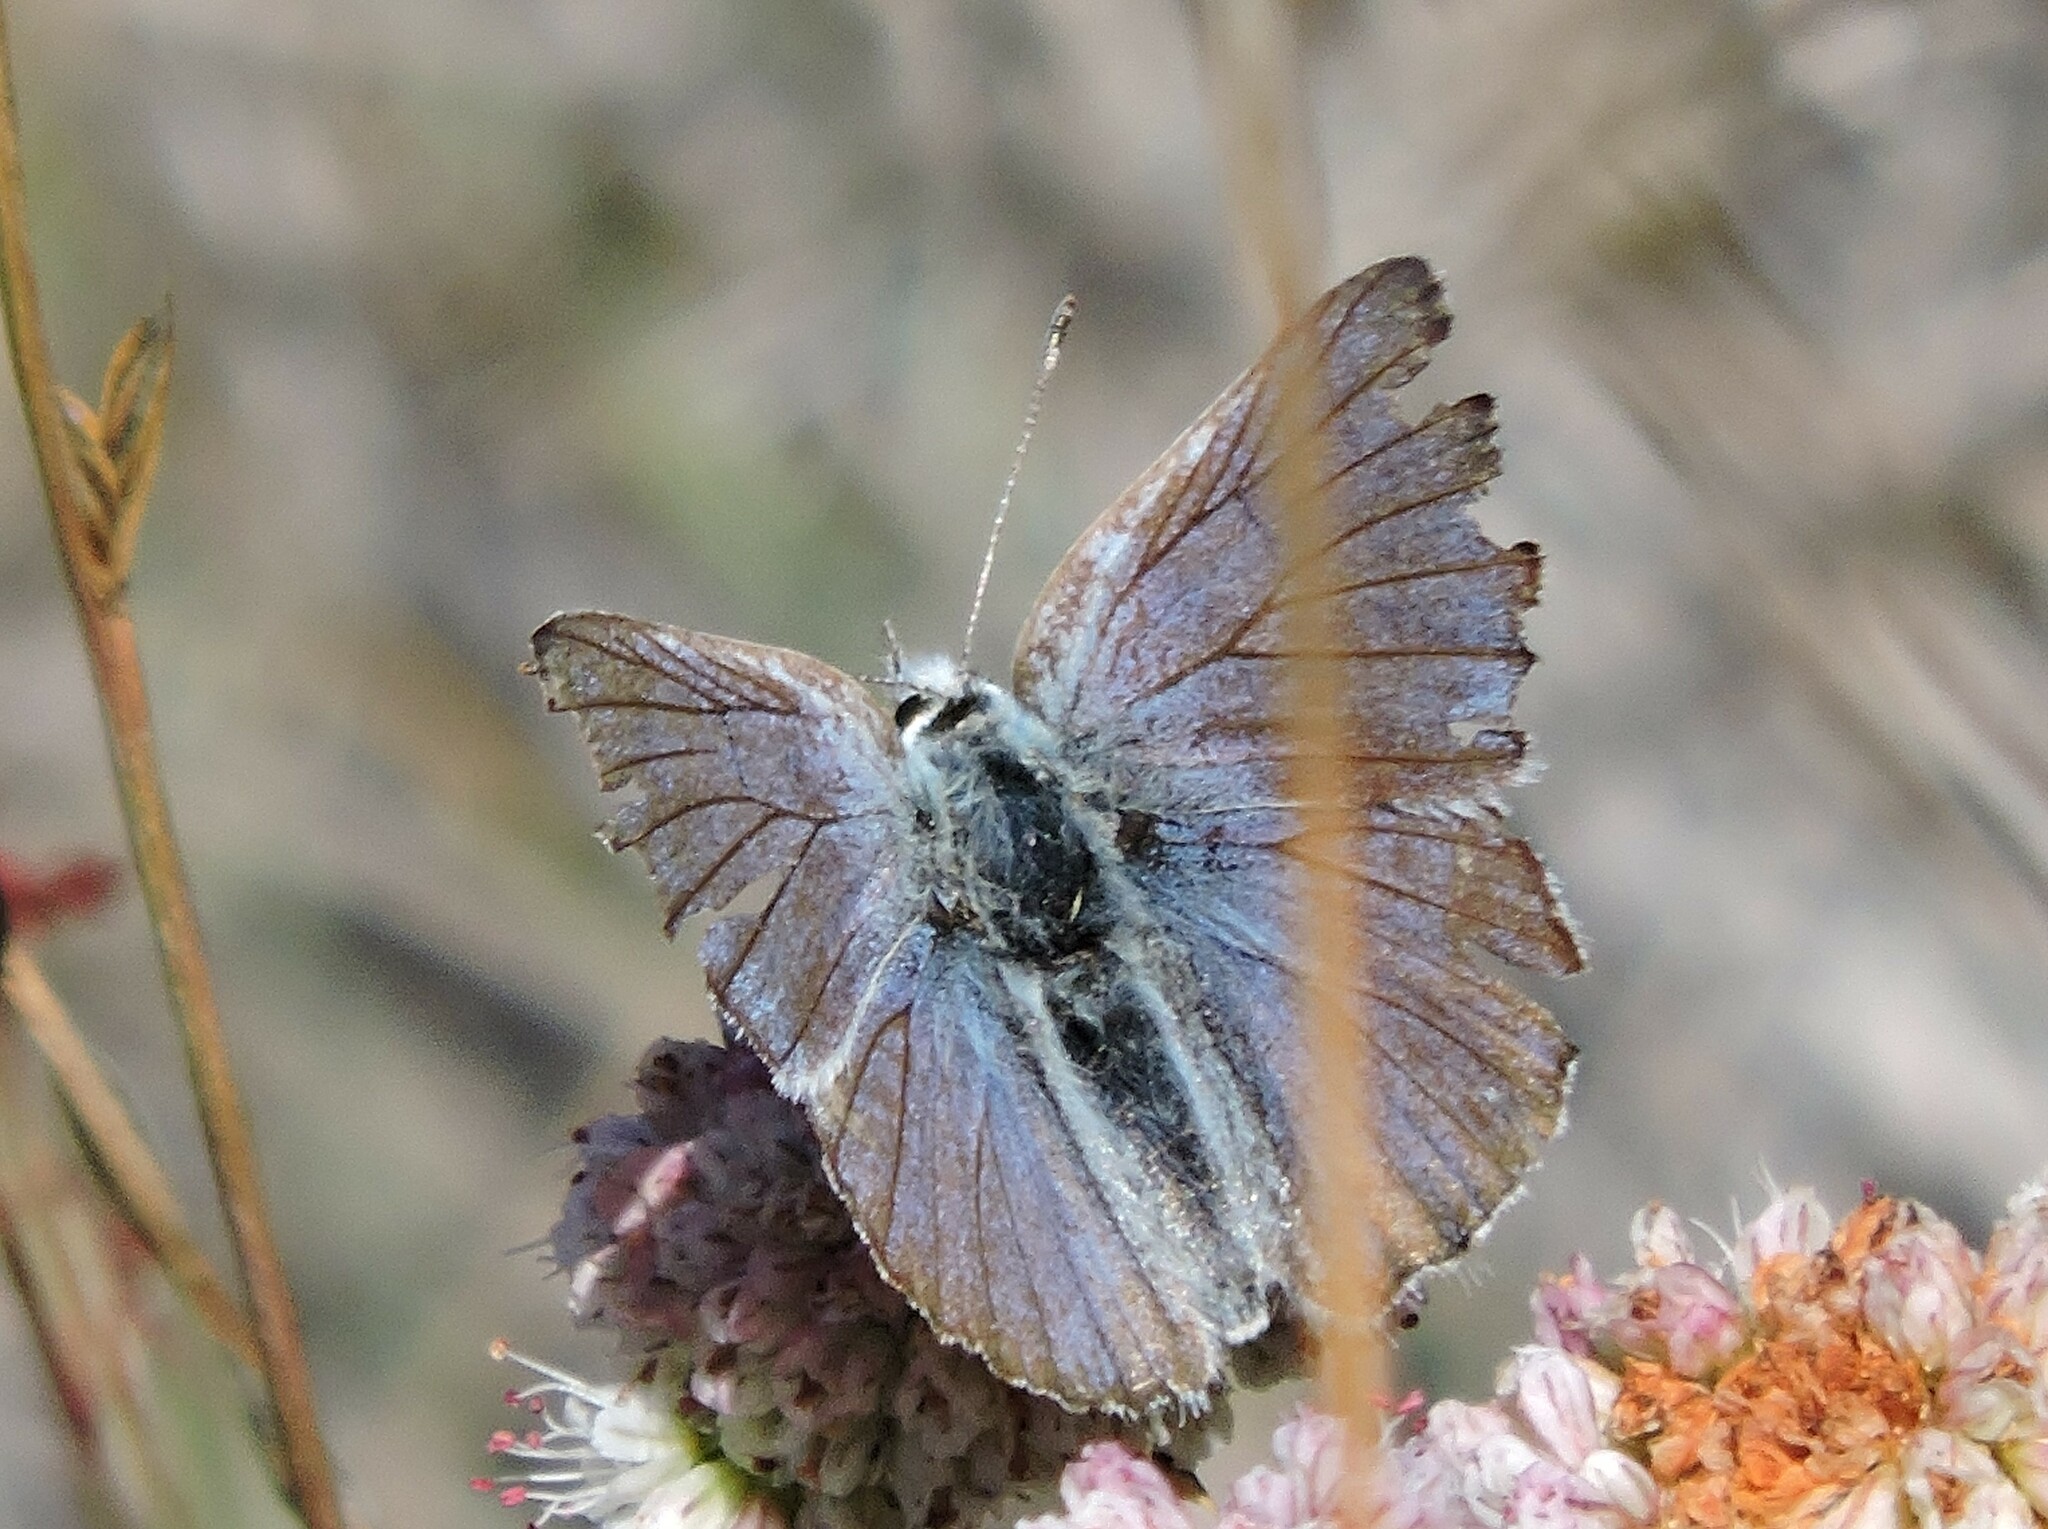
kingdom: Animalia
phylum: Arthropoda
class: Insecta
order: Lepidoptera
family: Lycaenidae
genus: Tharsalea
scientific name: Tharsalea heteronea
